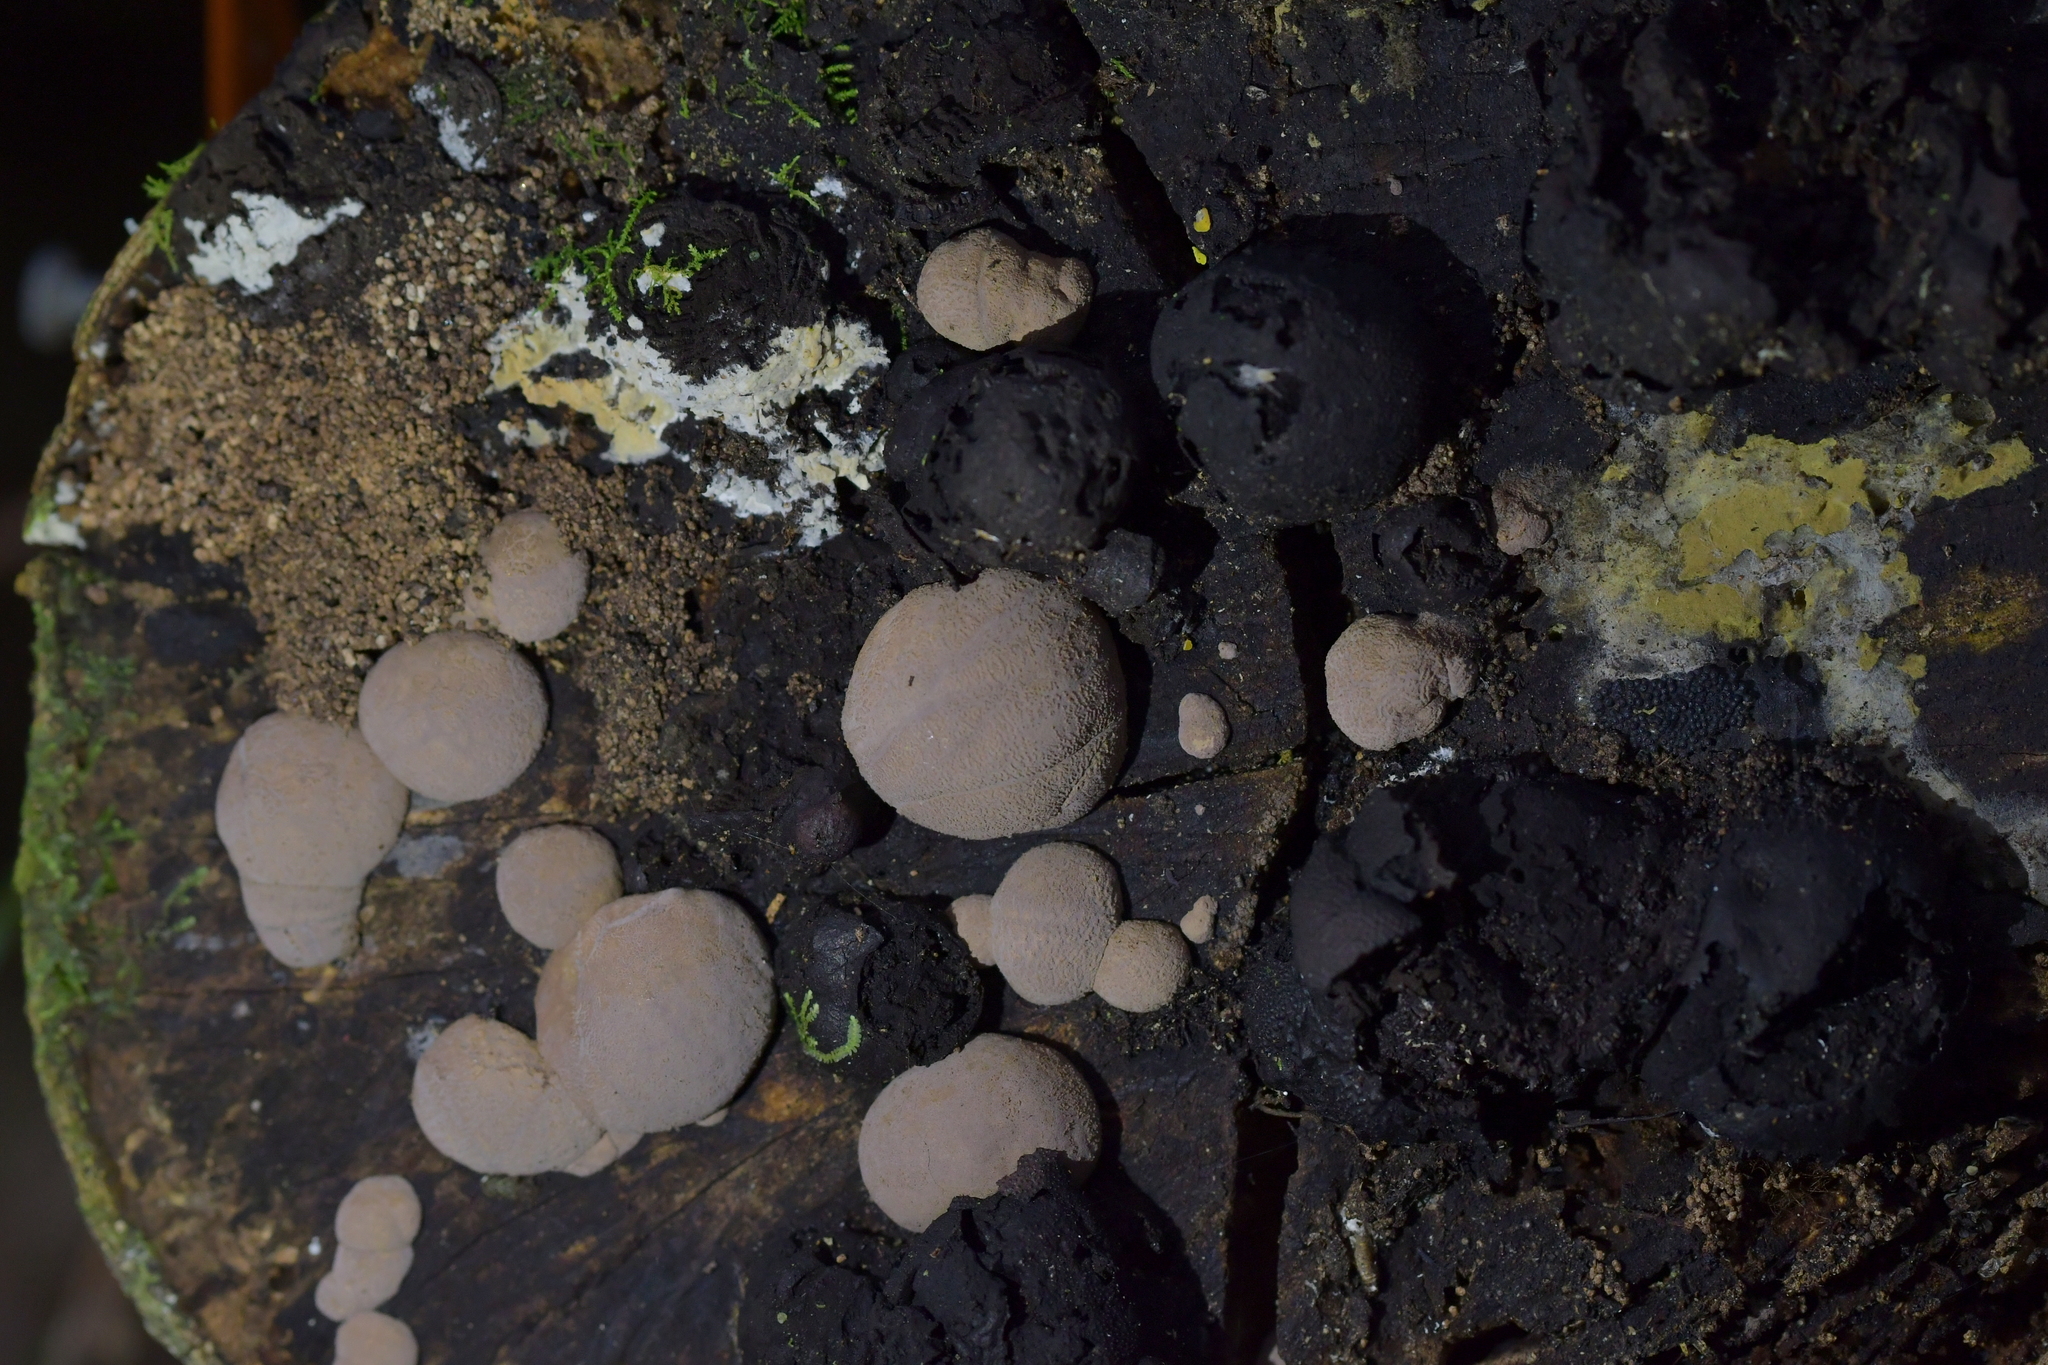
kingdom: Fungi
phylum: Ascomycota
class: Sordariomycetes
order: Xylariales
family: Hypoxylaceae
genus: Daldinia
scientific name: Daldinia
